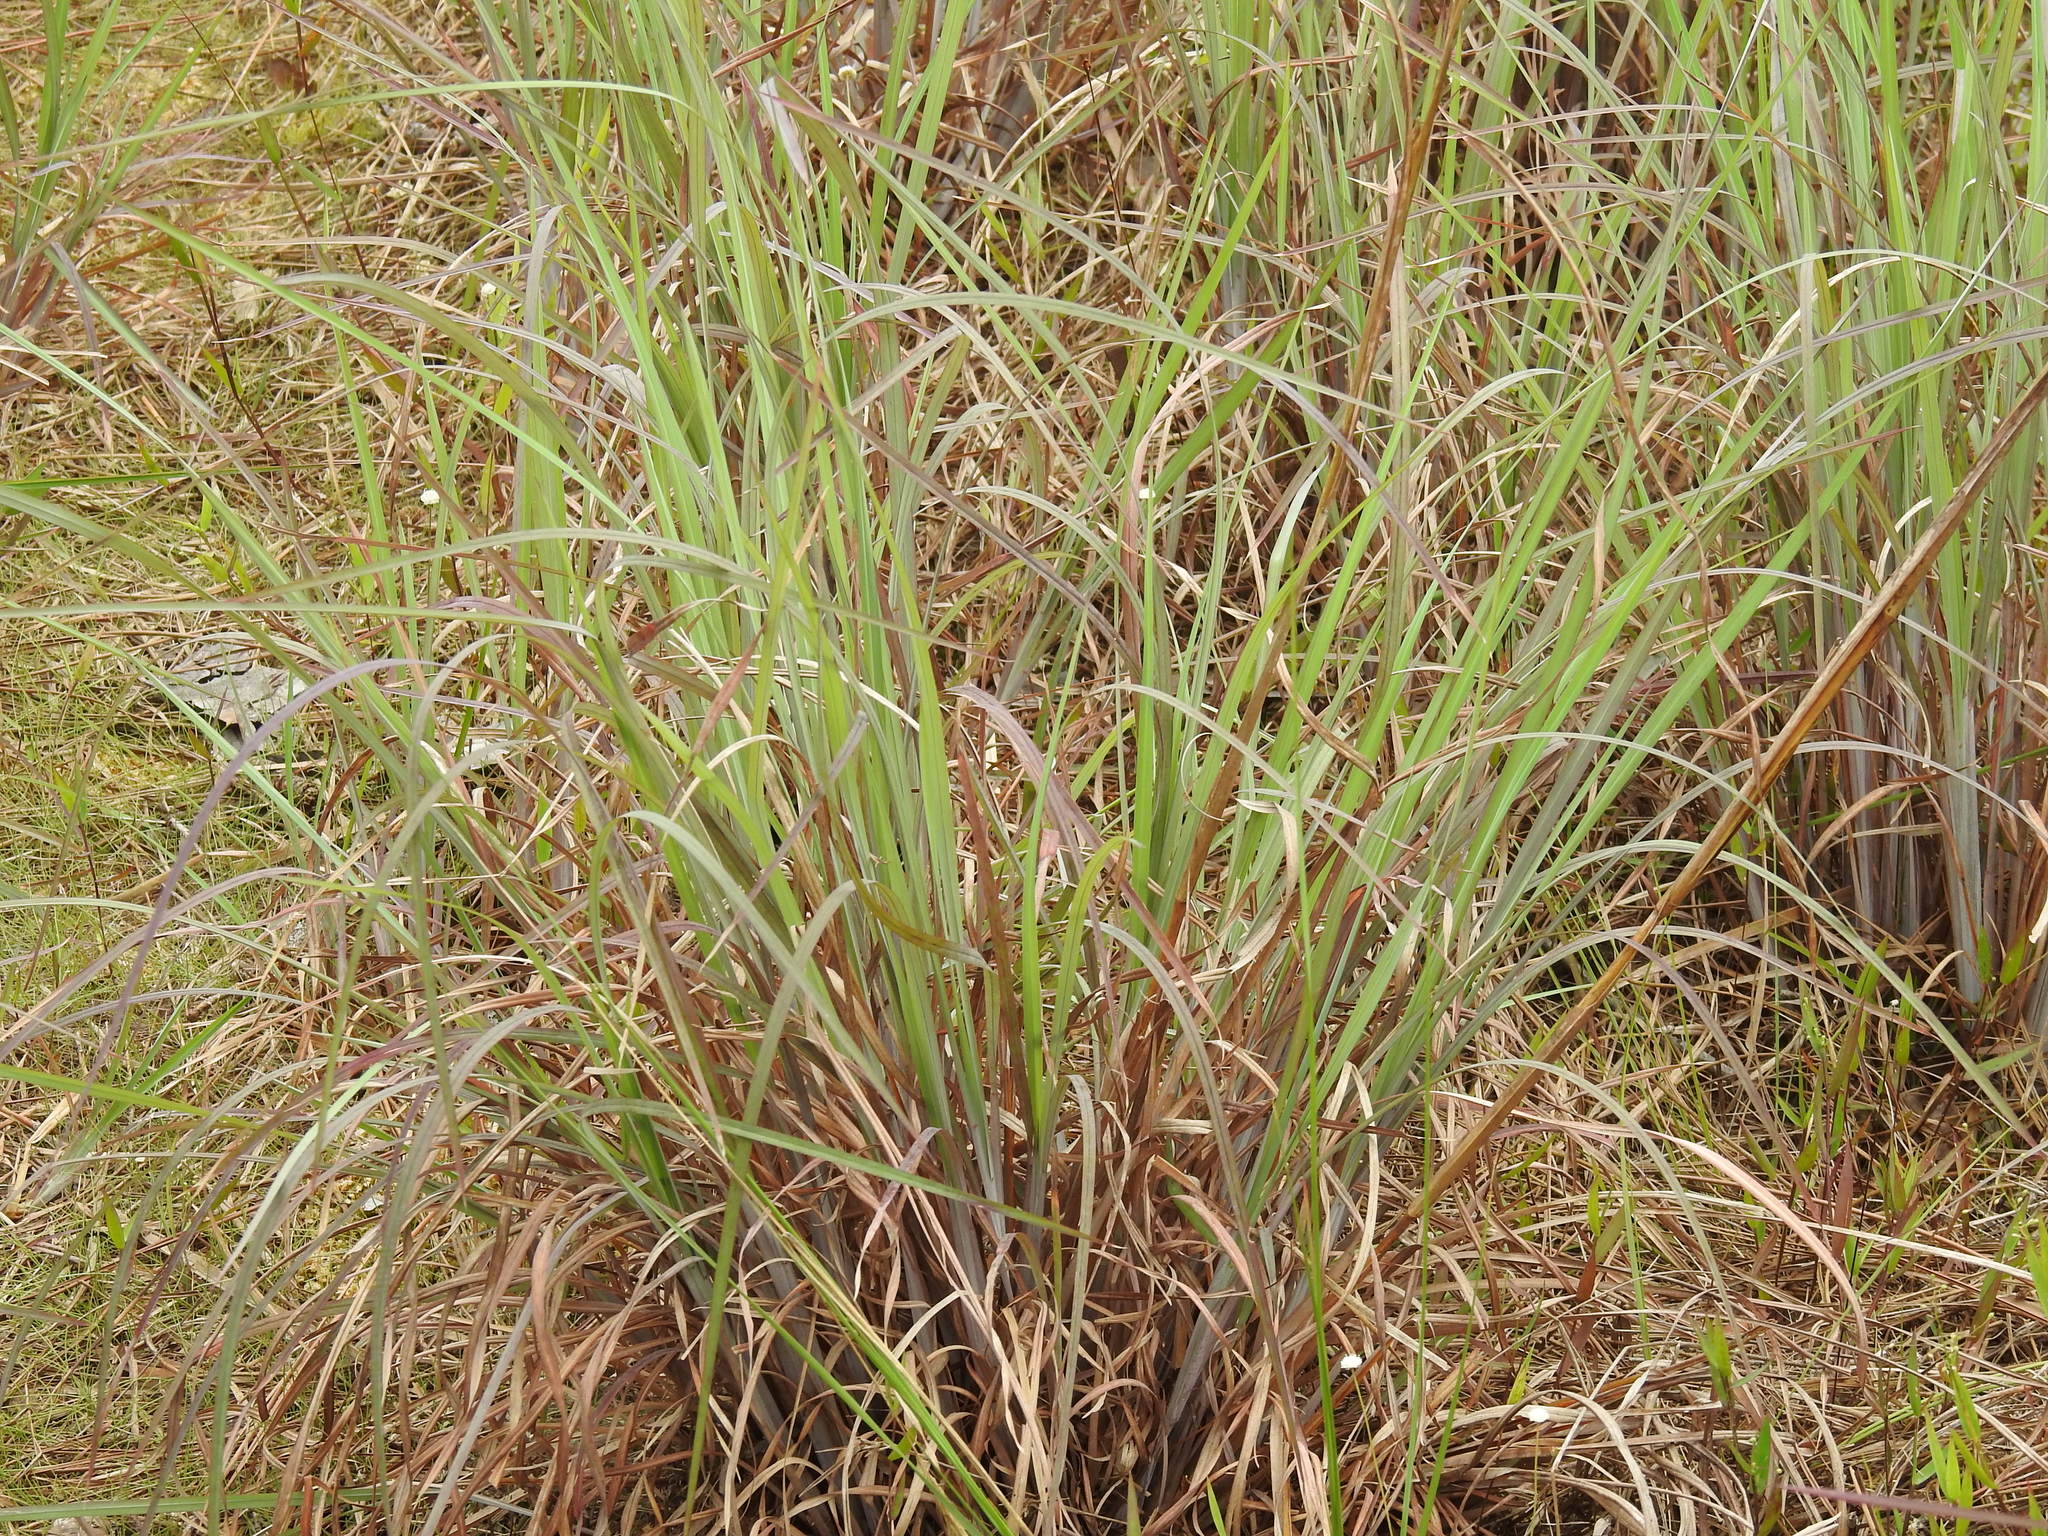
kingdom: Plantae
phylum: Tracheophyta
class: Liliopsida
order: Poales
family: Poaceae
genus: Imperata
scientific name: Imperata cylindrica
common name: Cogongrass
